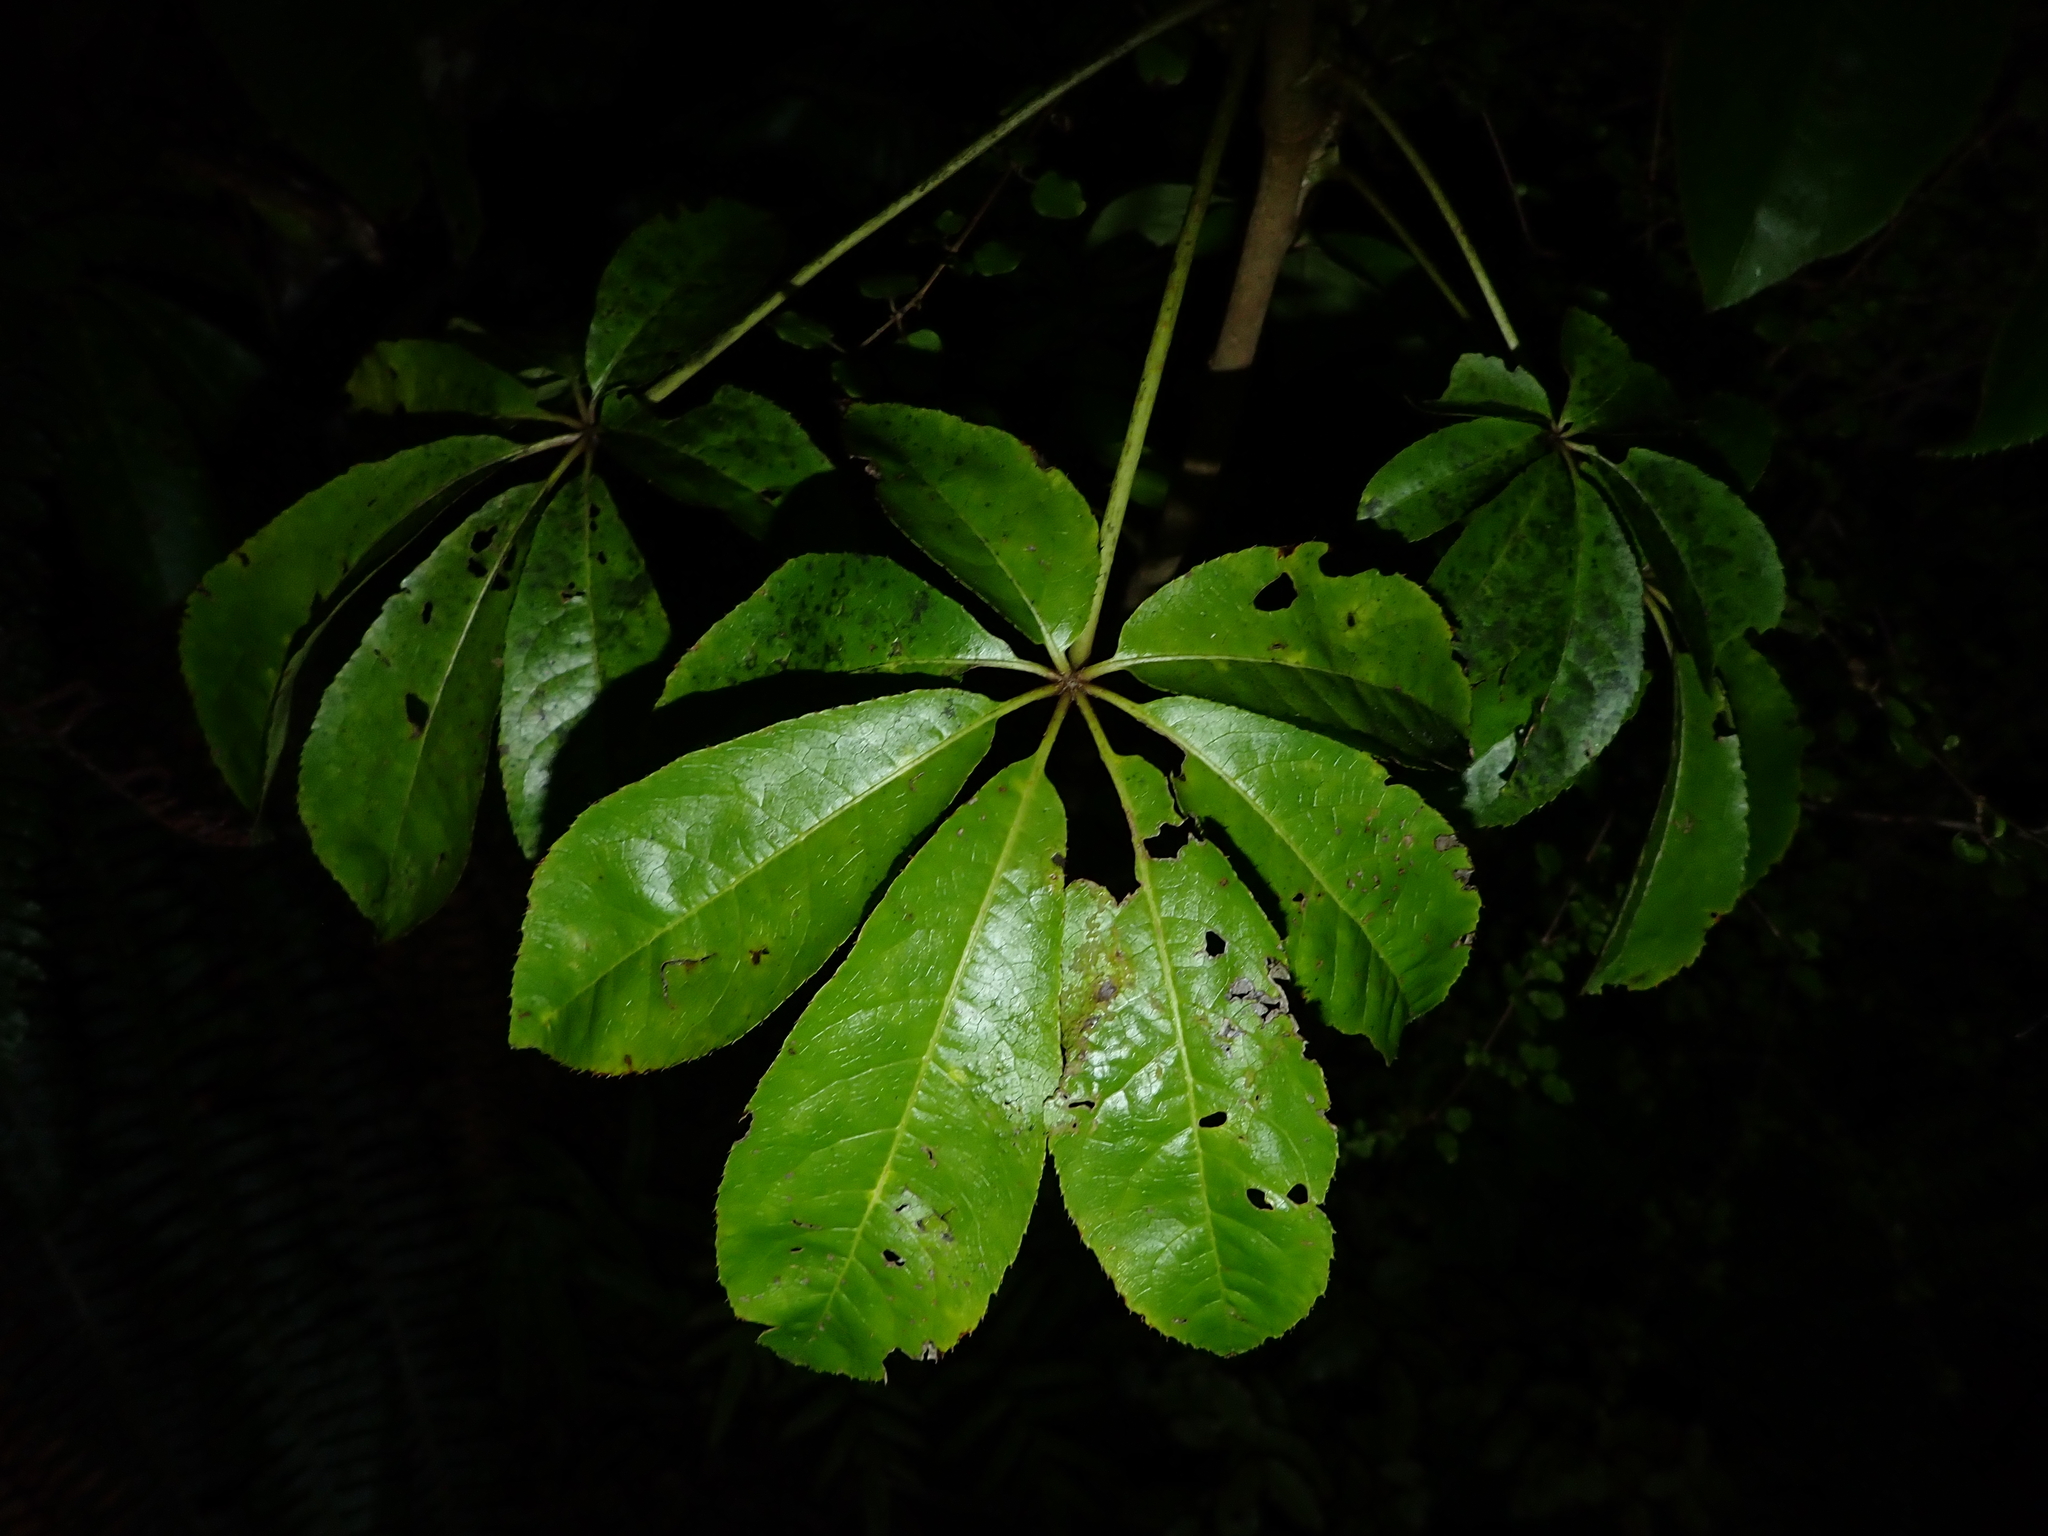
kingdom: Plantae
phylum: Tracheophyta
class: Magnoliopsida
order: Apiales
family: Araliaceae
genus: Schefflera
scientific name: Schefflera digitata
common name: Pate
